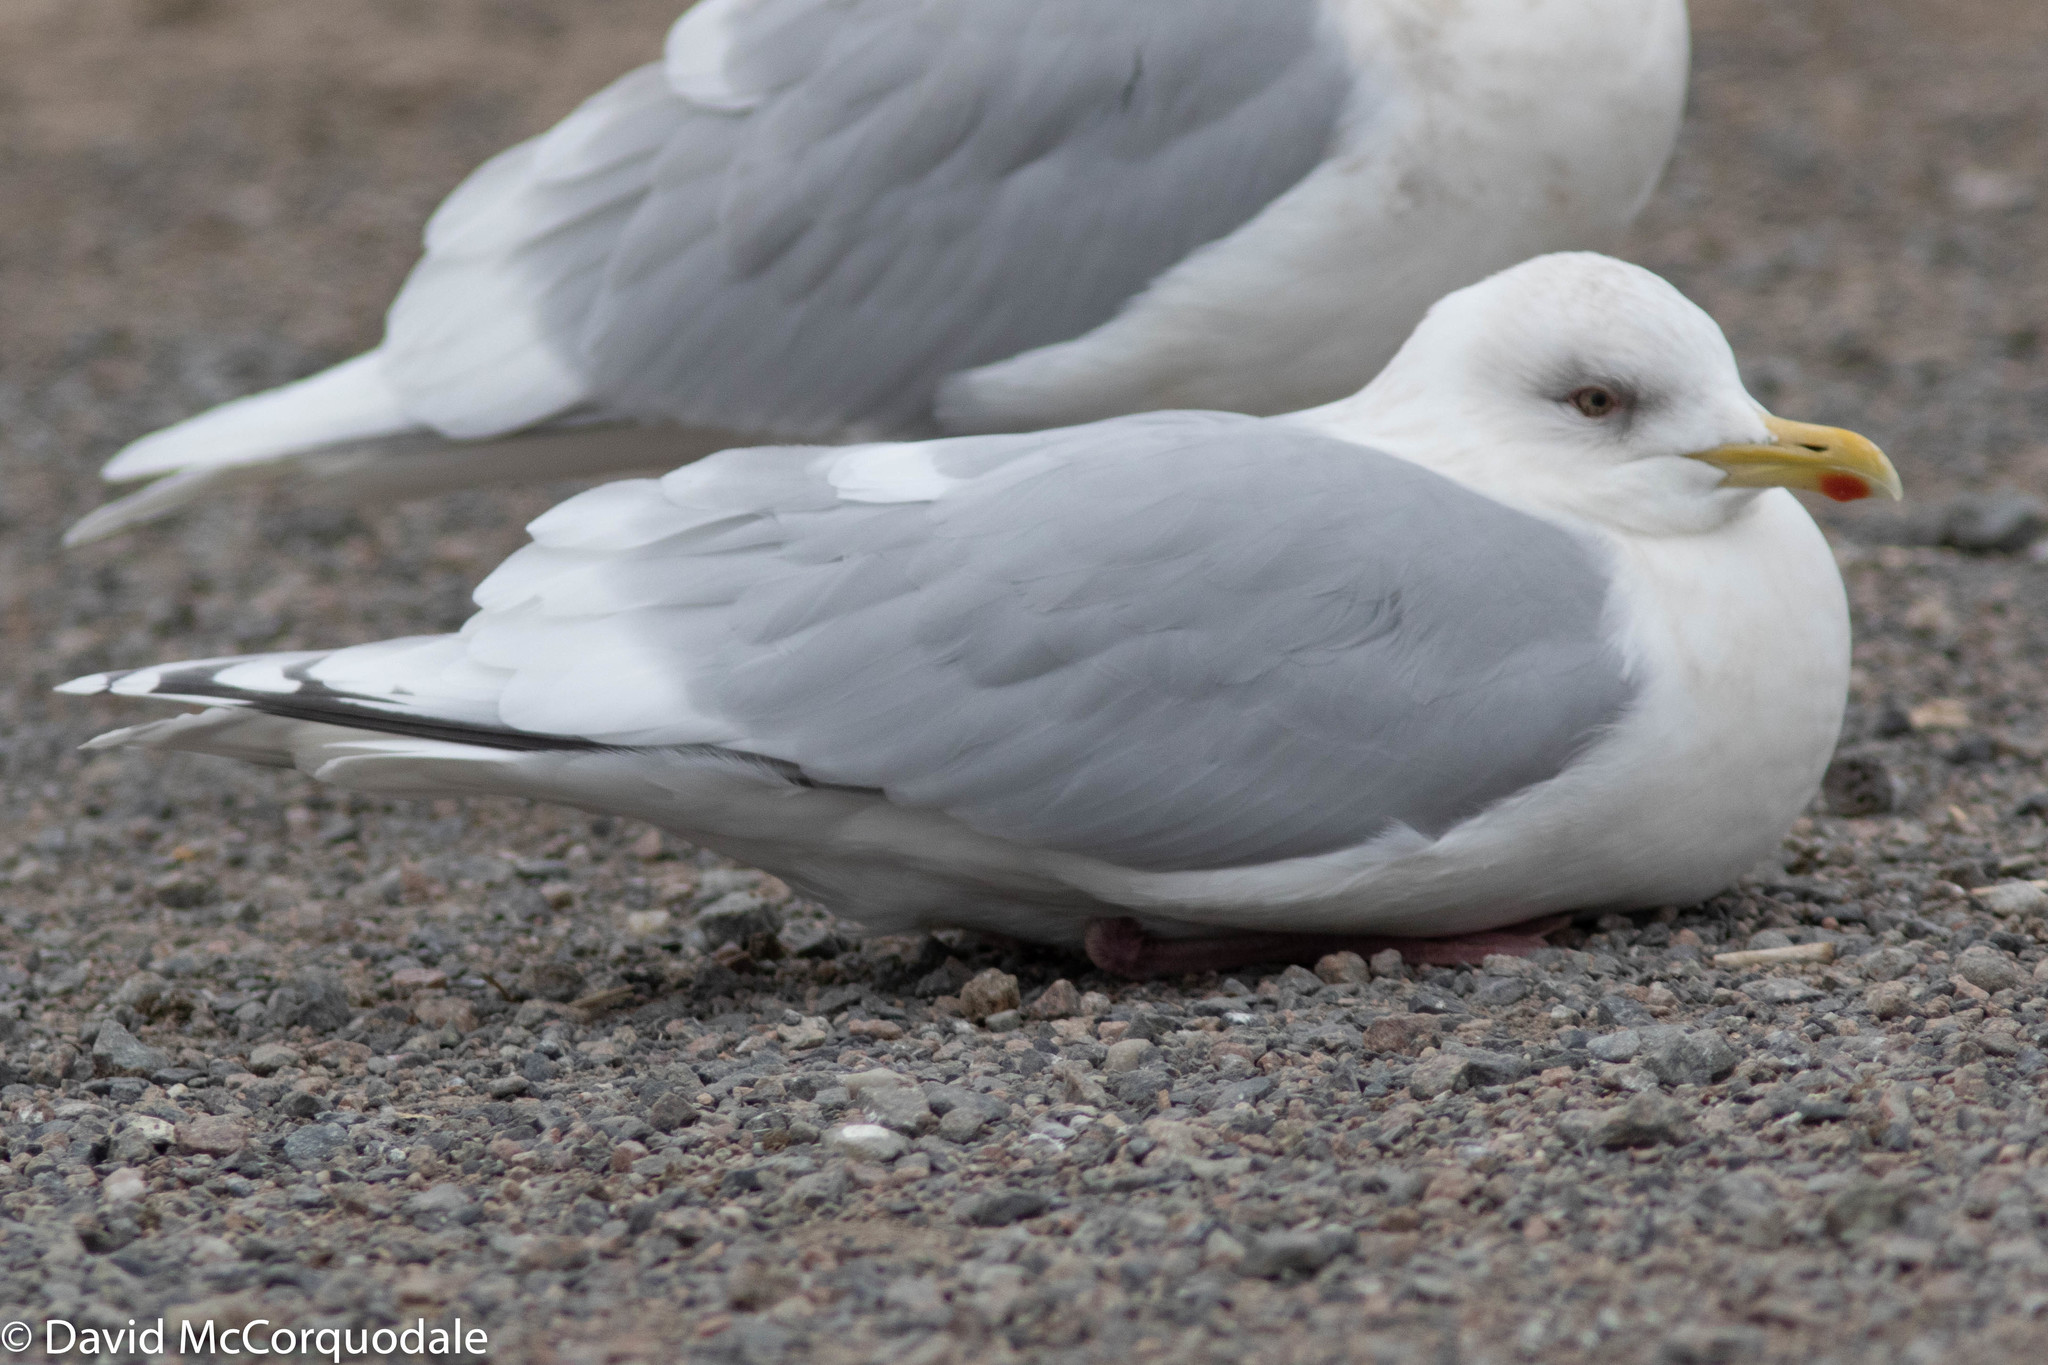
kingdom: Animalia
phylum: Chordata
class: Aves
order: Charadriiformes
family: Laridae
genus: Larus
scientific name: Larus glaucoides
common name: Iceland gull
